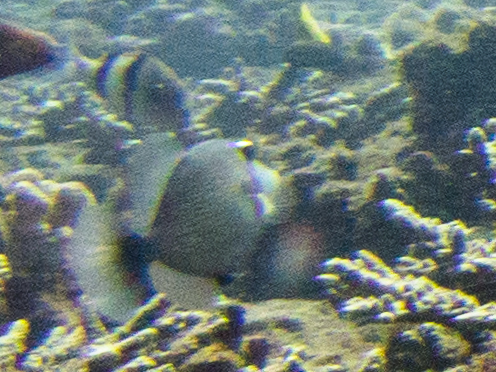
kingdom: Animalia
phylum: Chordata
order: Tetraodontiformes
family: Balistidae
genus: Sufflamen
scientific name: Sufflamen bursa
